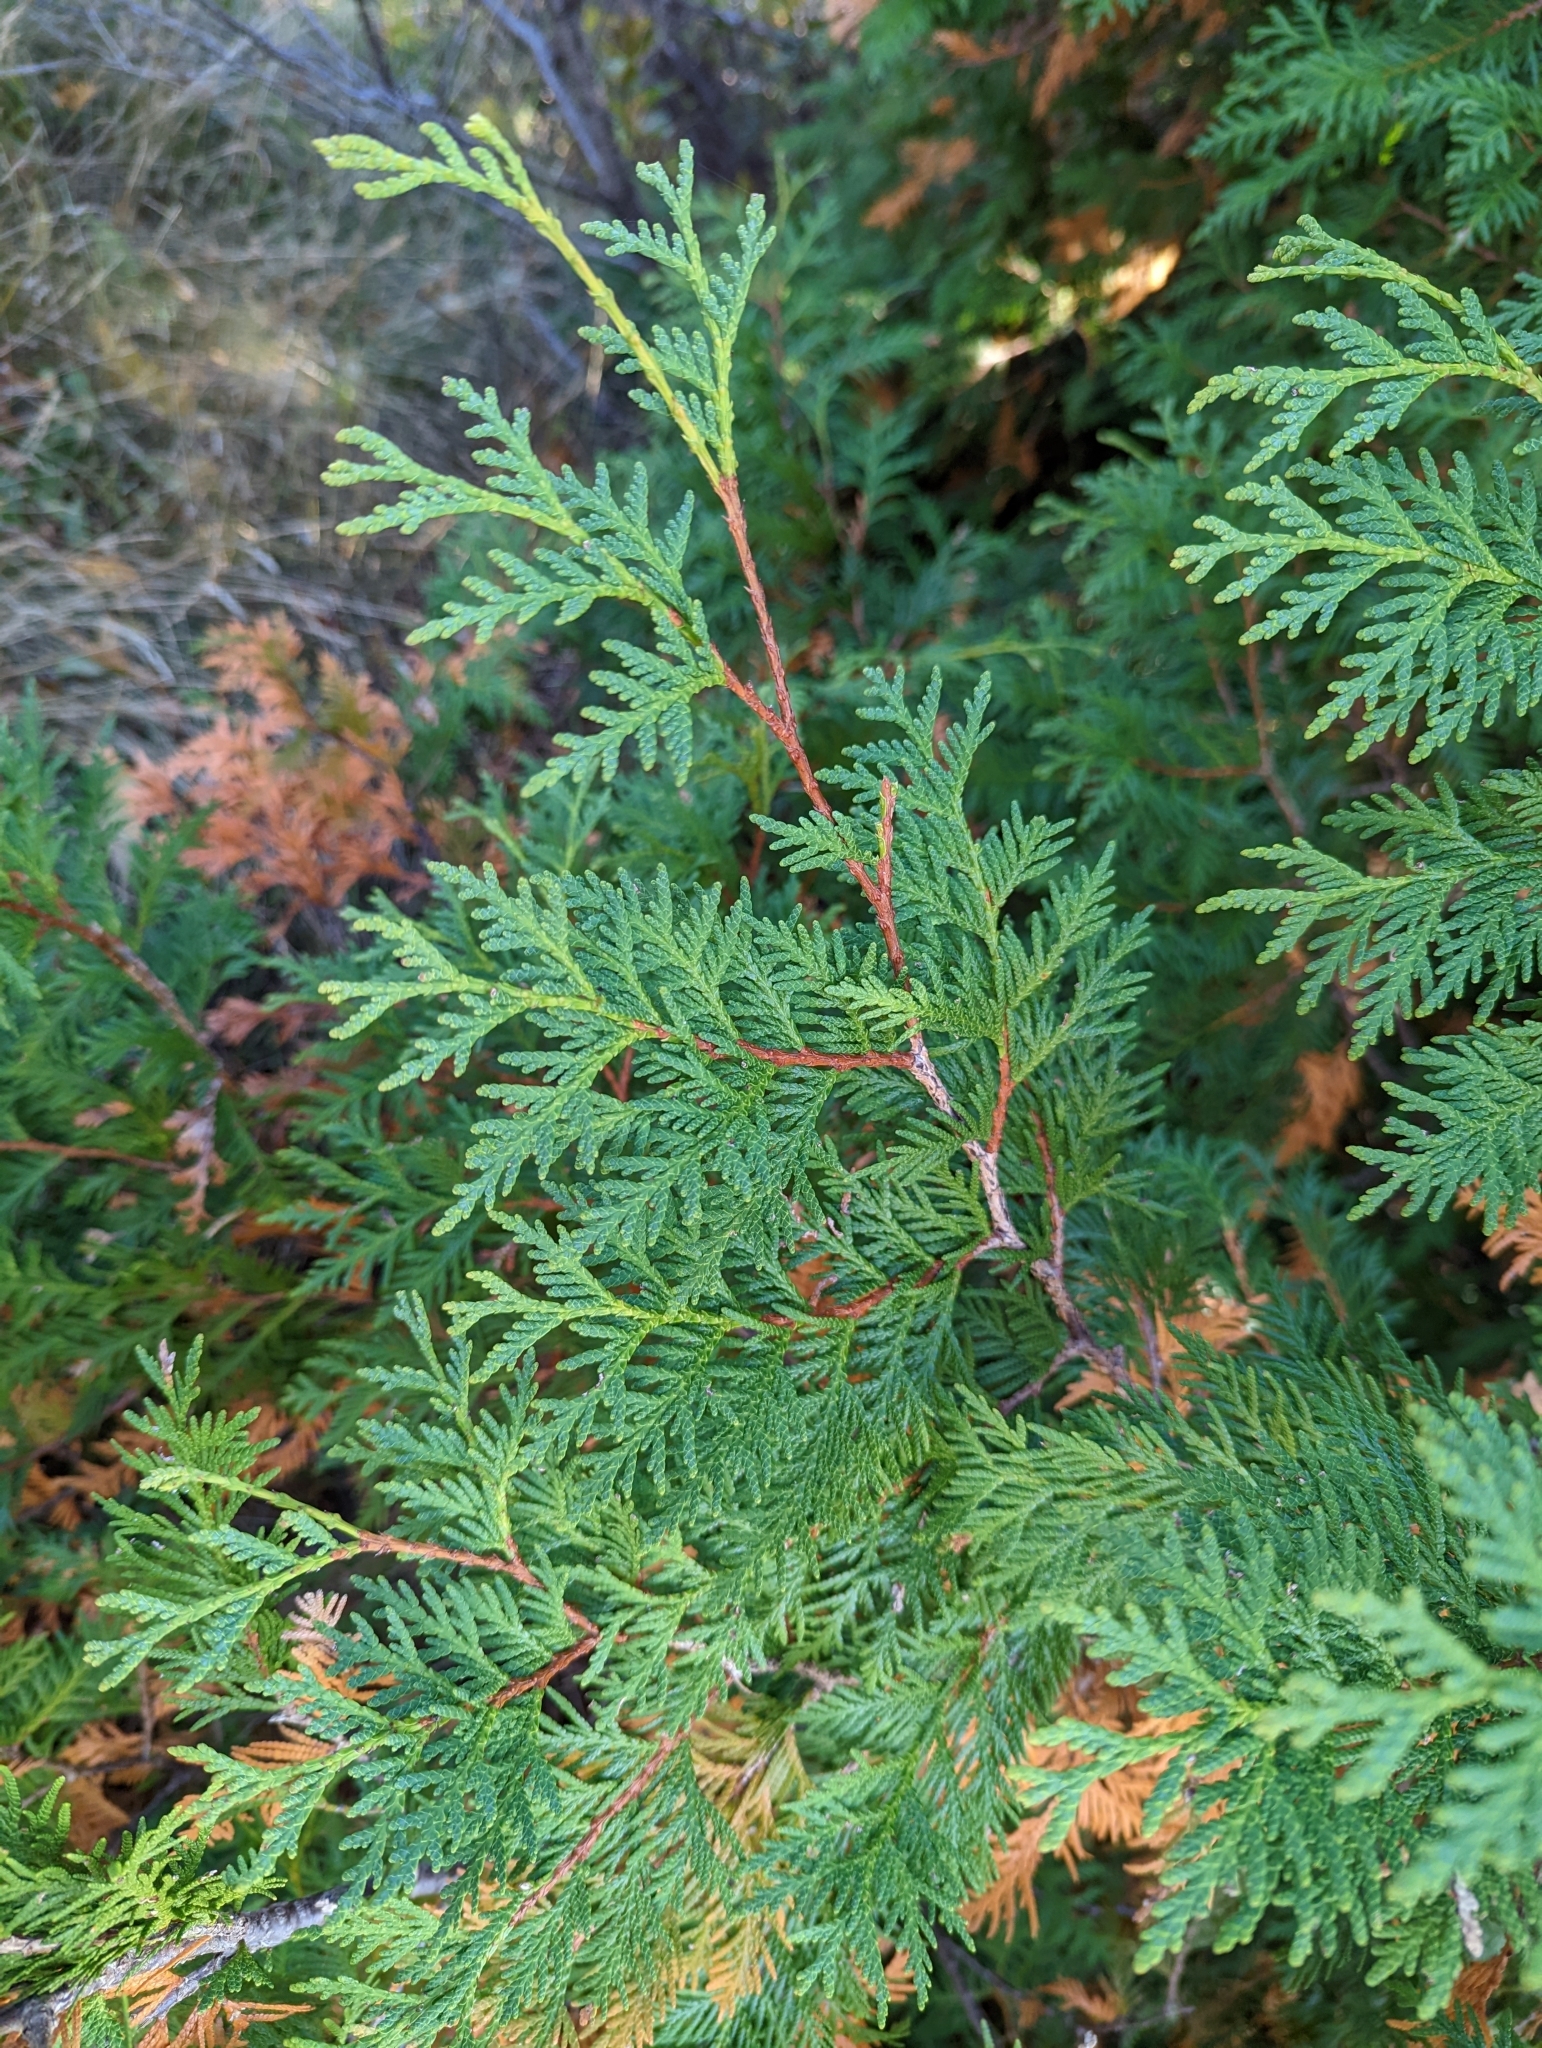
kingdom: Plantae
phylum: Tracheophyta
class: Pinopsida
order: Pinales
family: Cupressaceae
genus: Thuja
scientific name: Thuja occidentalis
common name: Northern white-cedar
